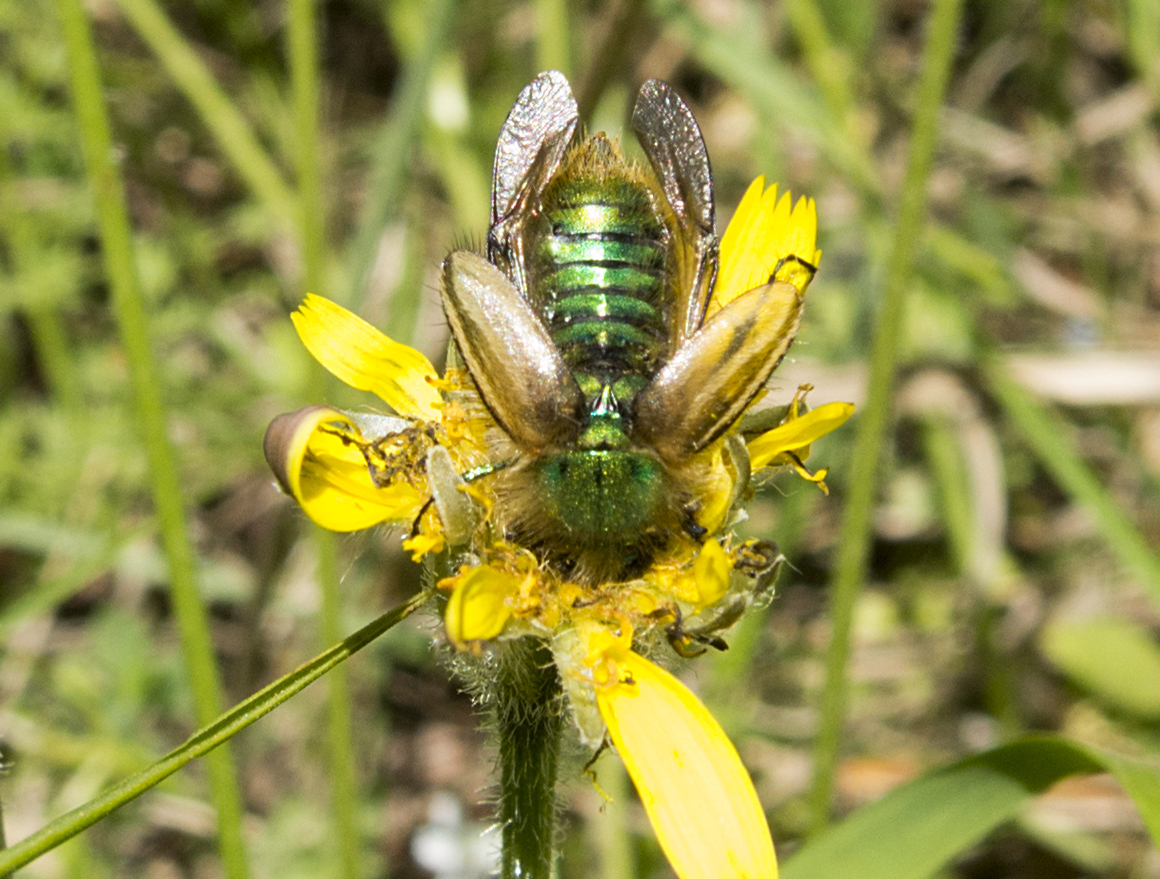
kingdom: Animalia
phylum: Arthropoda
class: Insecta
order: Coleoptera
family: Glaphyridae
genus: Eulasia
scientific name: Eulasia pareyssei
